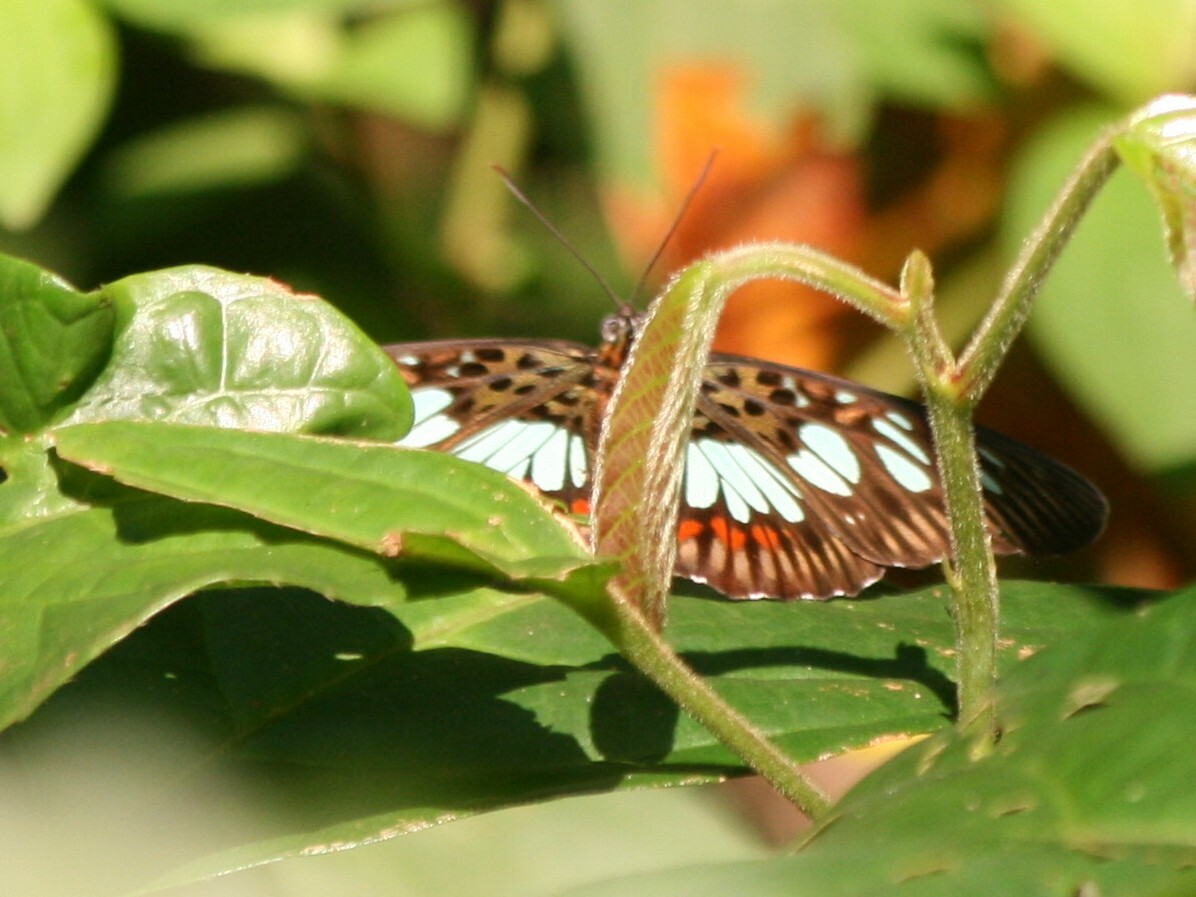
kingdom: Animalia
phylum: Arthropoda
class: Insecta
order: Lepidoptera
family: Nymphalidae
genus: Chloropoea
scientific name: Chloropoea semire
